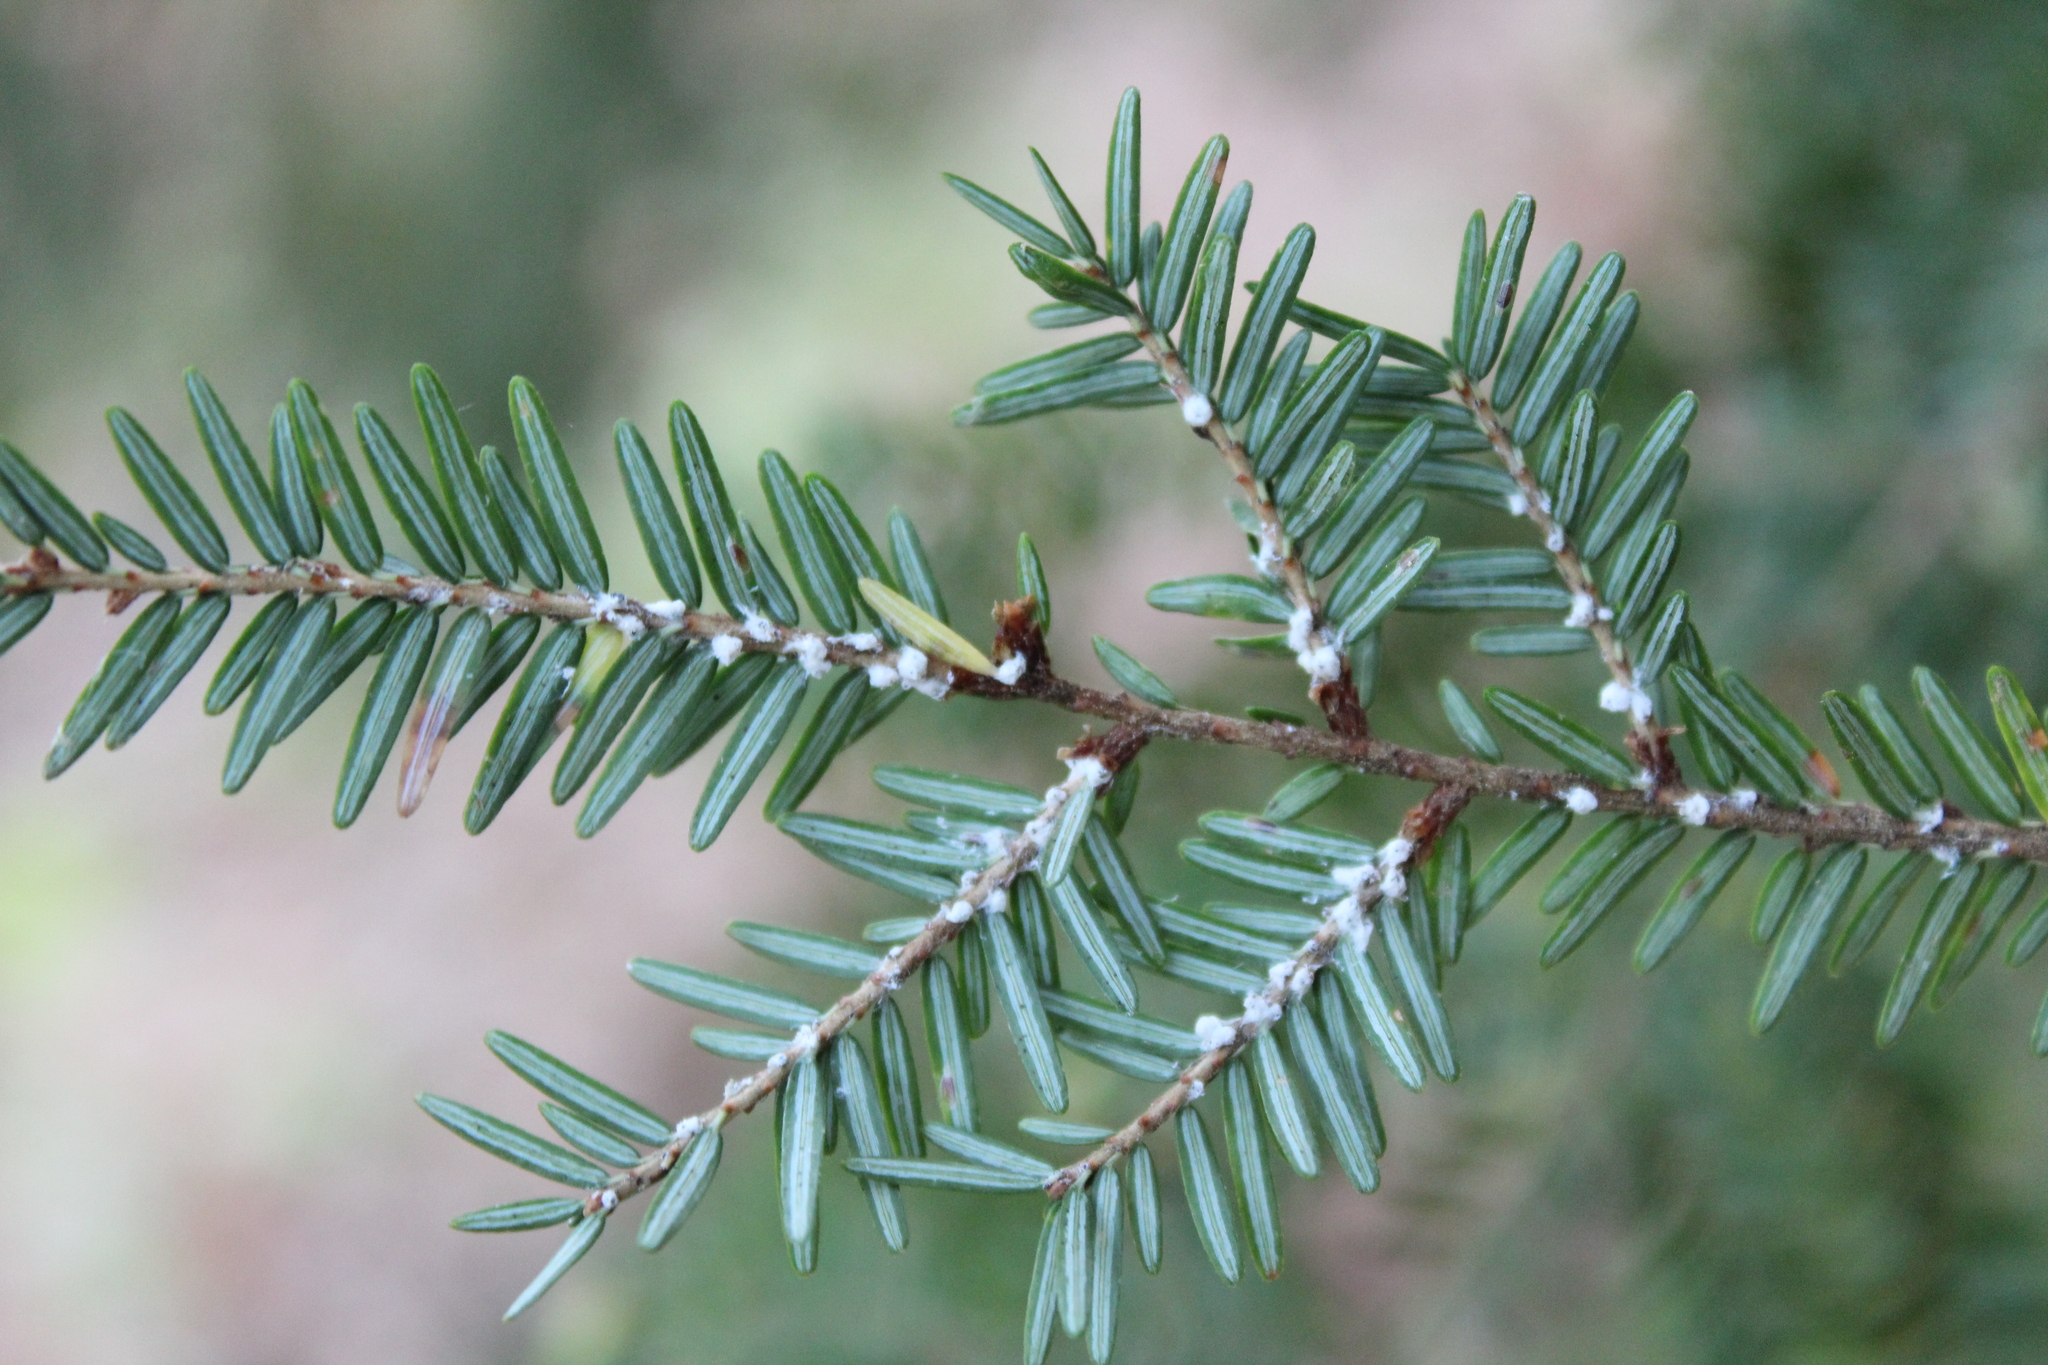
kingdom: Animalia
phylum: Arthropoda
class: Insecta
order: Hemiptera
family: Adelgidae
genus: Adelges
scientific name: Adelges tsugae
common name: Hemlock woolly adelgid
